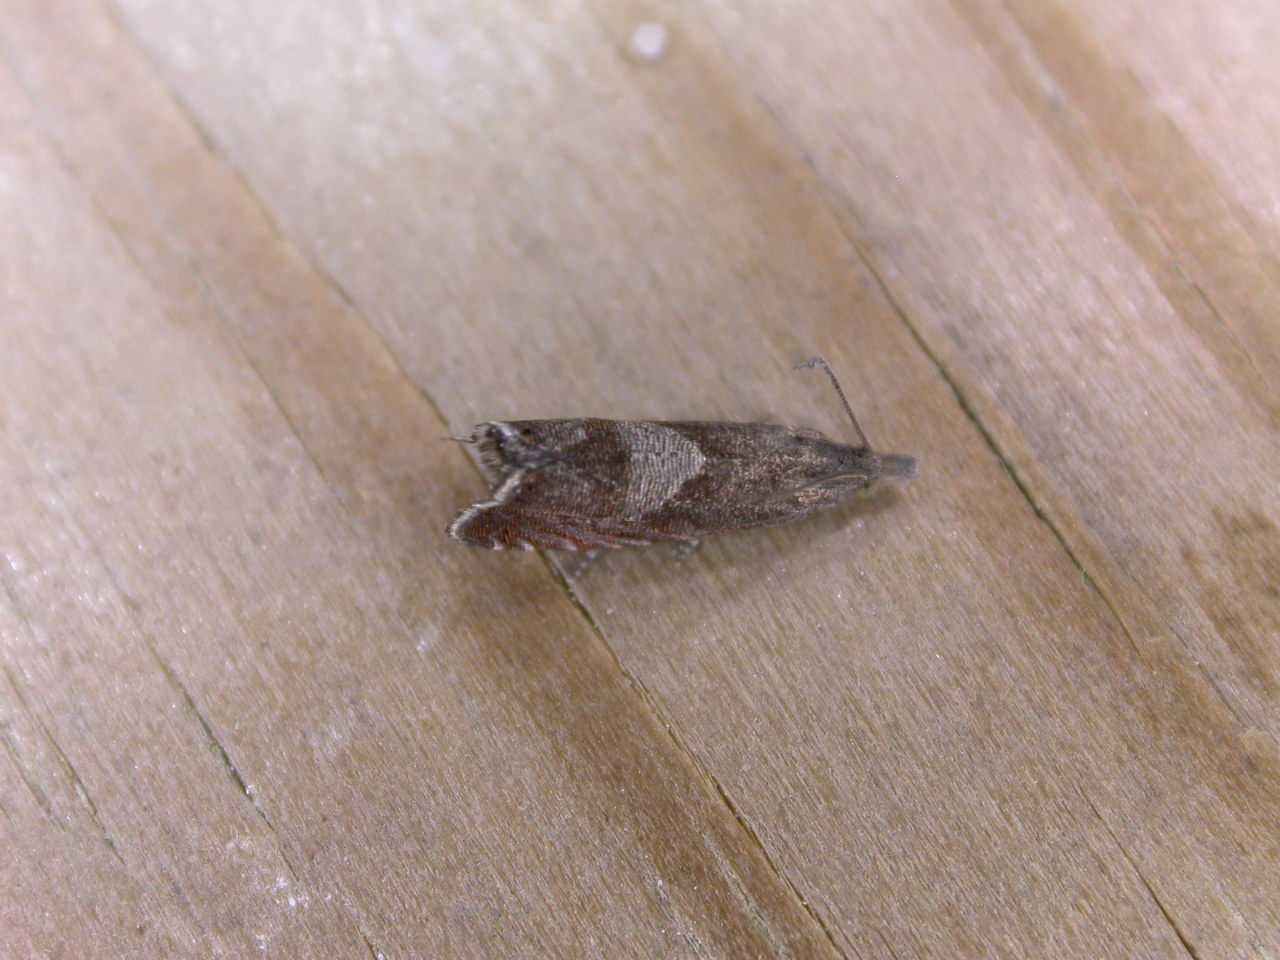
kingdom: Animalia
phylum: Arthropoda
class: Insecta
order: Lepidoptera
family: Tortricidae
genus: Dichrorampha
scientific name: Dichrorampha acuminatana
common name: Sharp-winged drill
